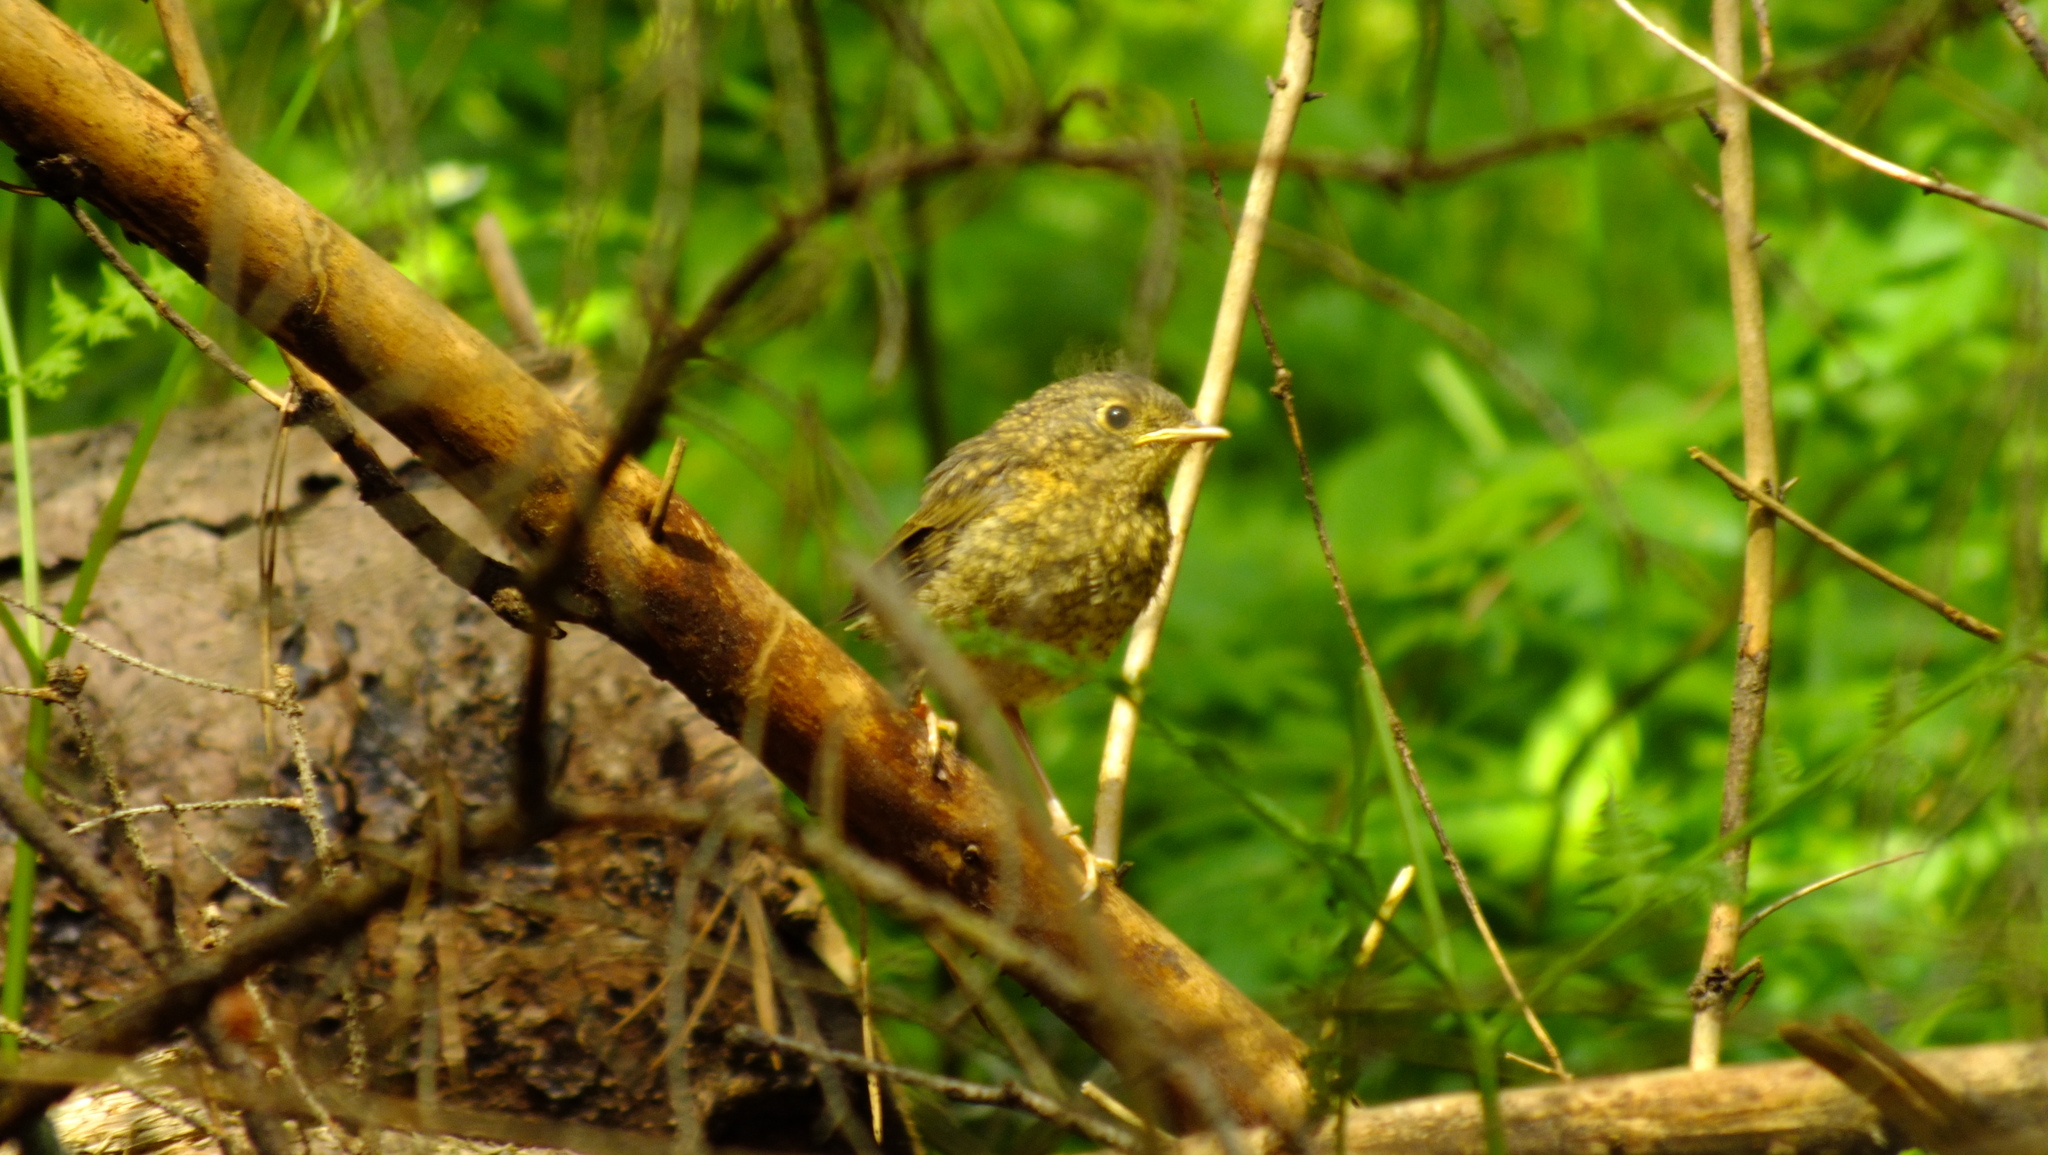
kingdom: Animalia
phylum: Chordata
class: Aves
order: Passeriformes
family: Muscicapidae
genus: Erithacus
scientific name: Erithacus rubecula
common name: European robin
